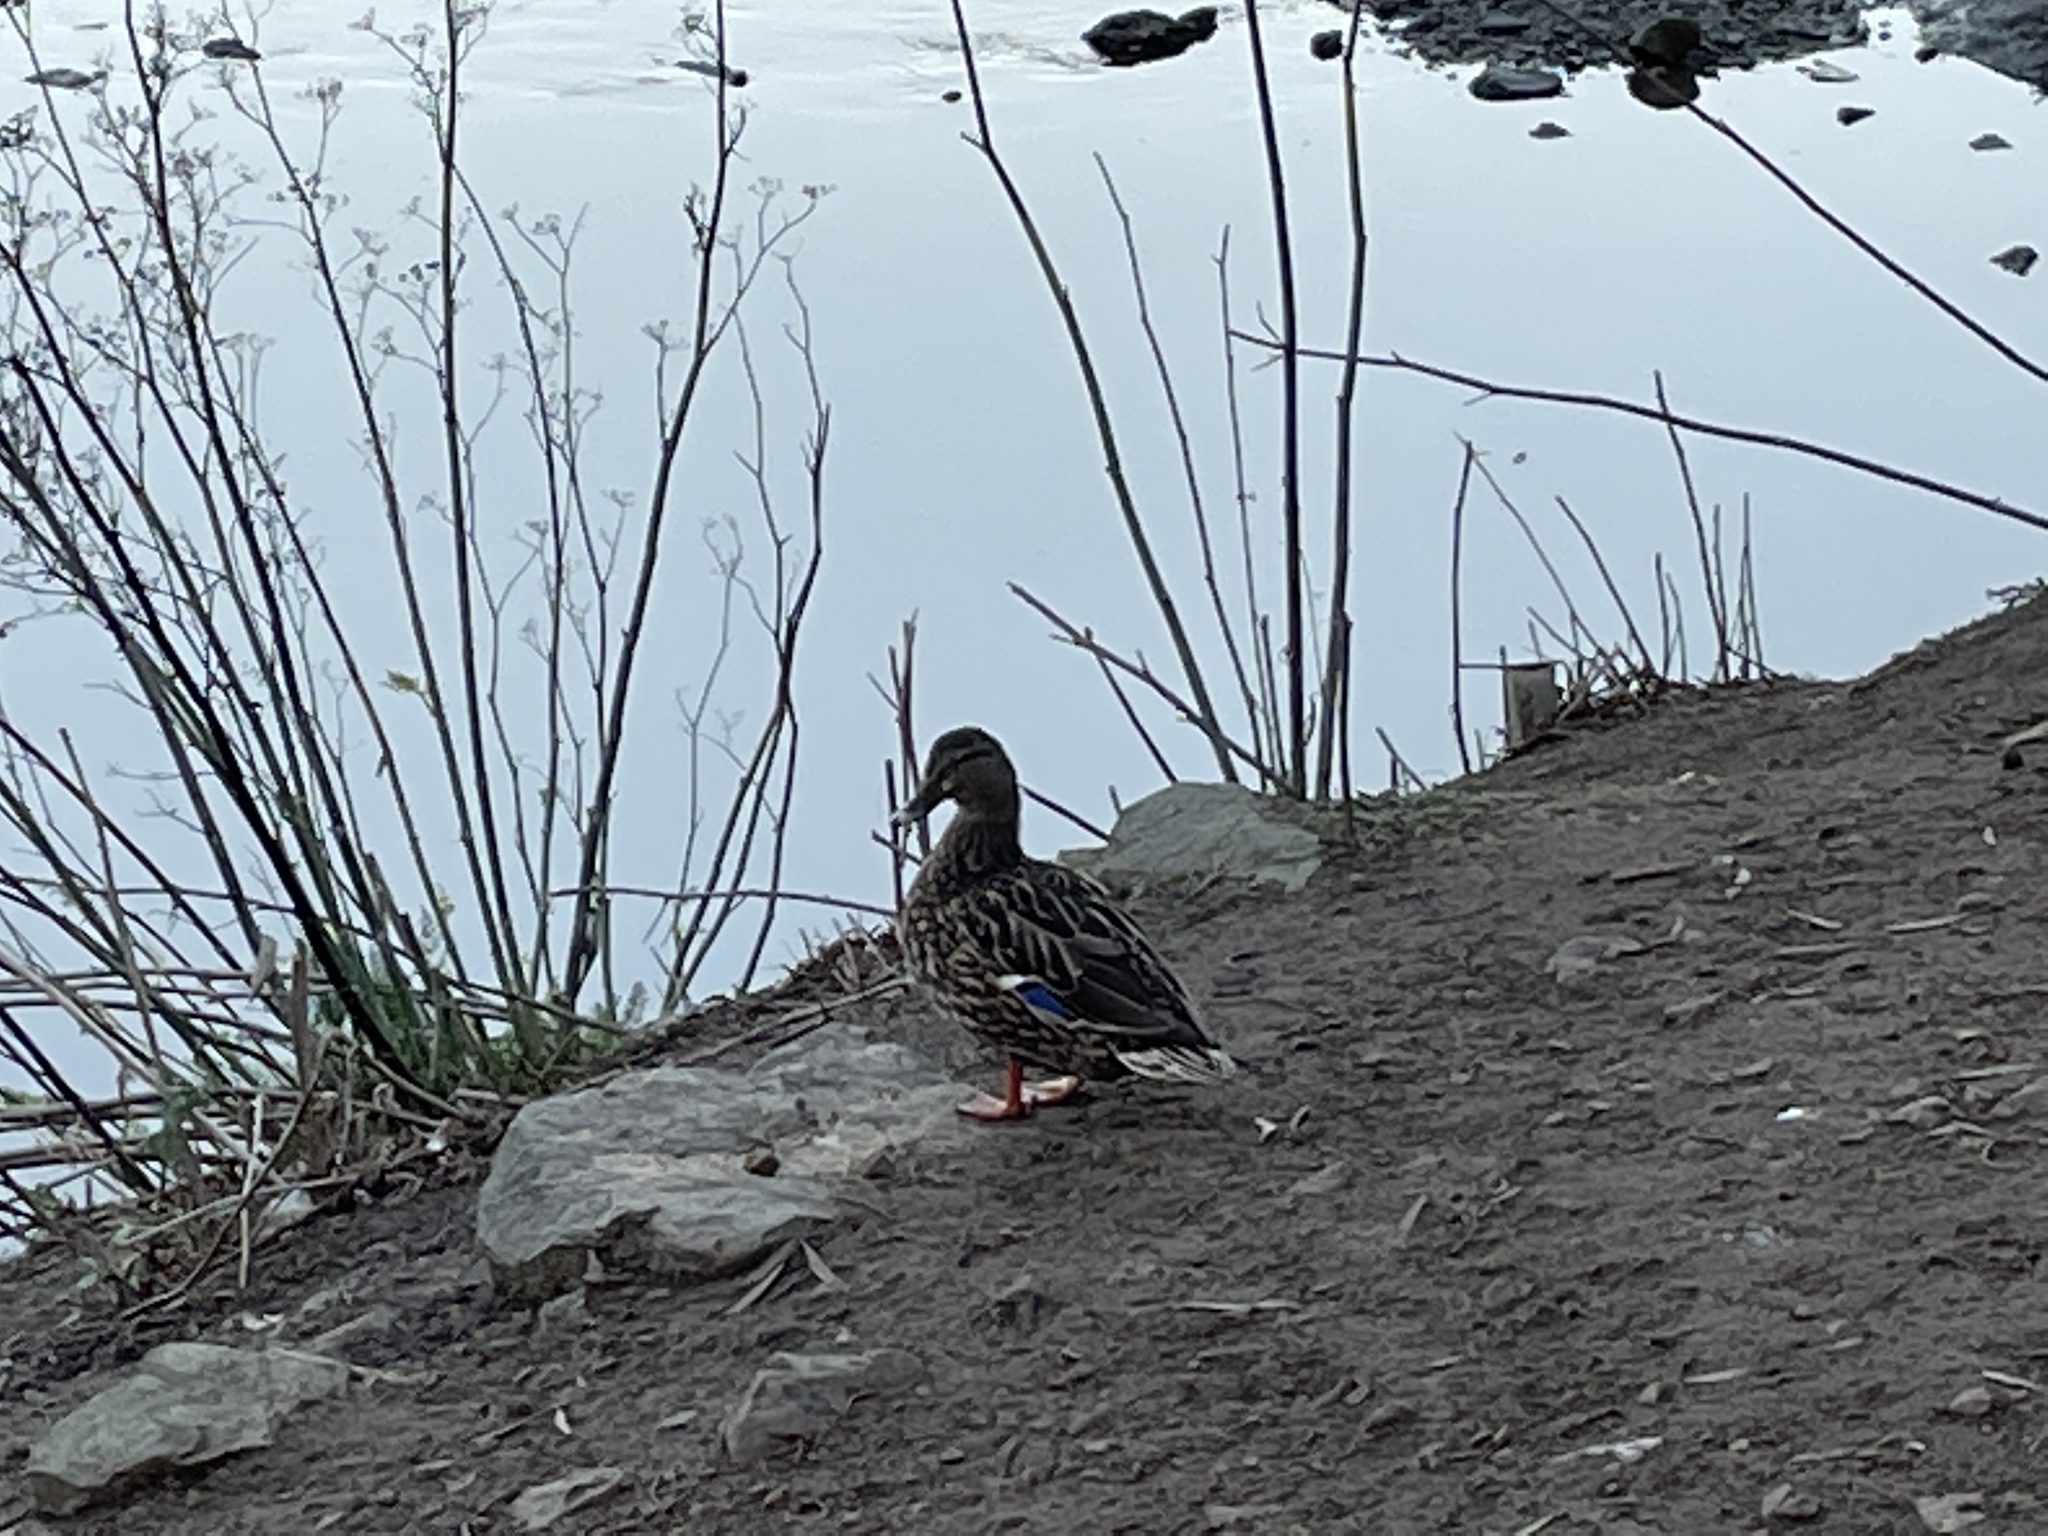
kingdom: Animalia
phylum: Chordata
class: Aves
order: Anseriformes
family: Anatidae
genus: Anas
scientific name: Anas platyrhynchos
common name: Mallard
